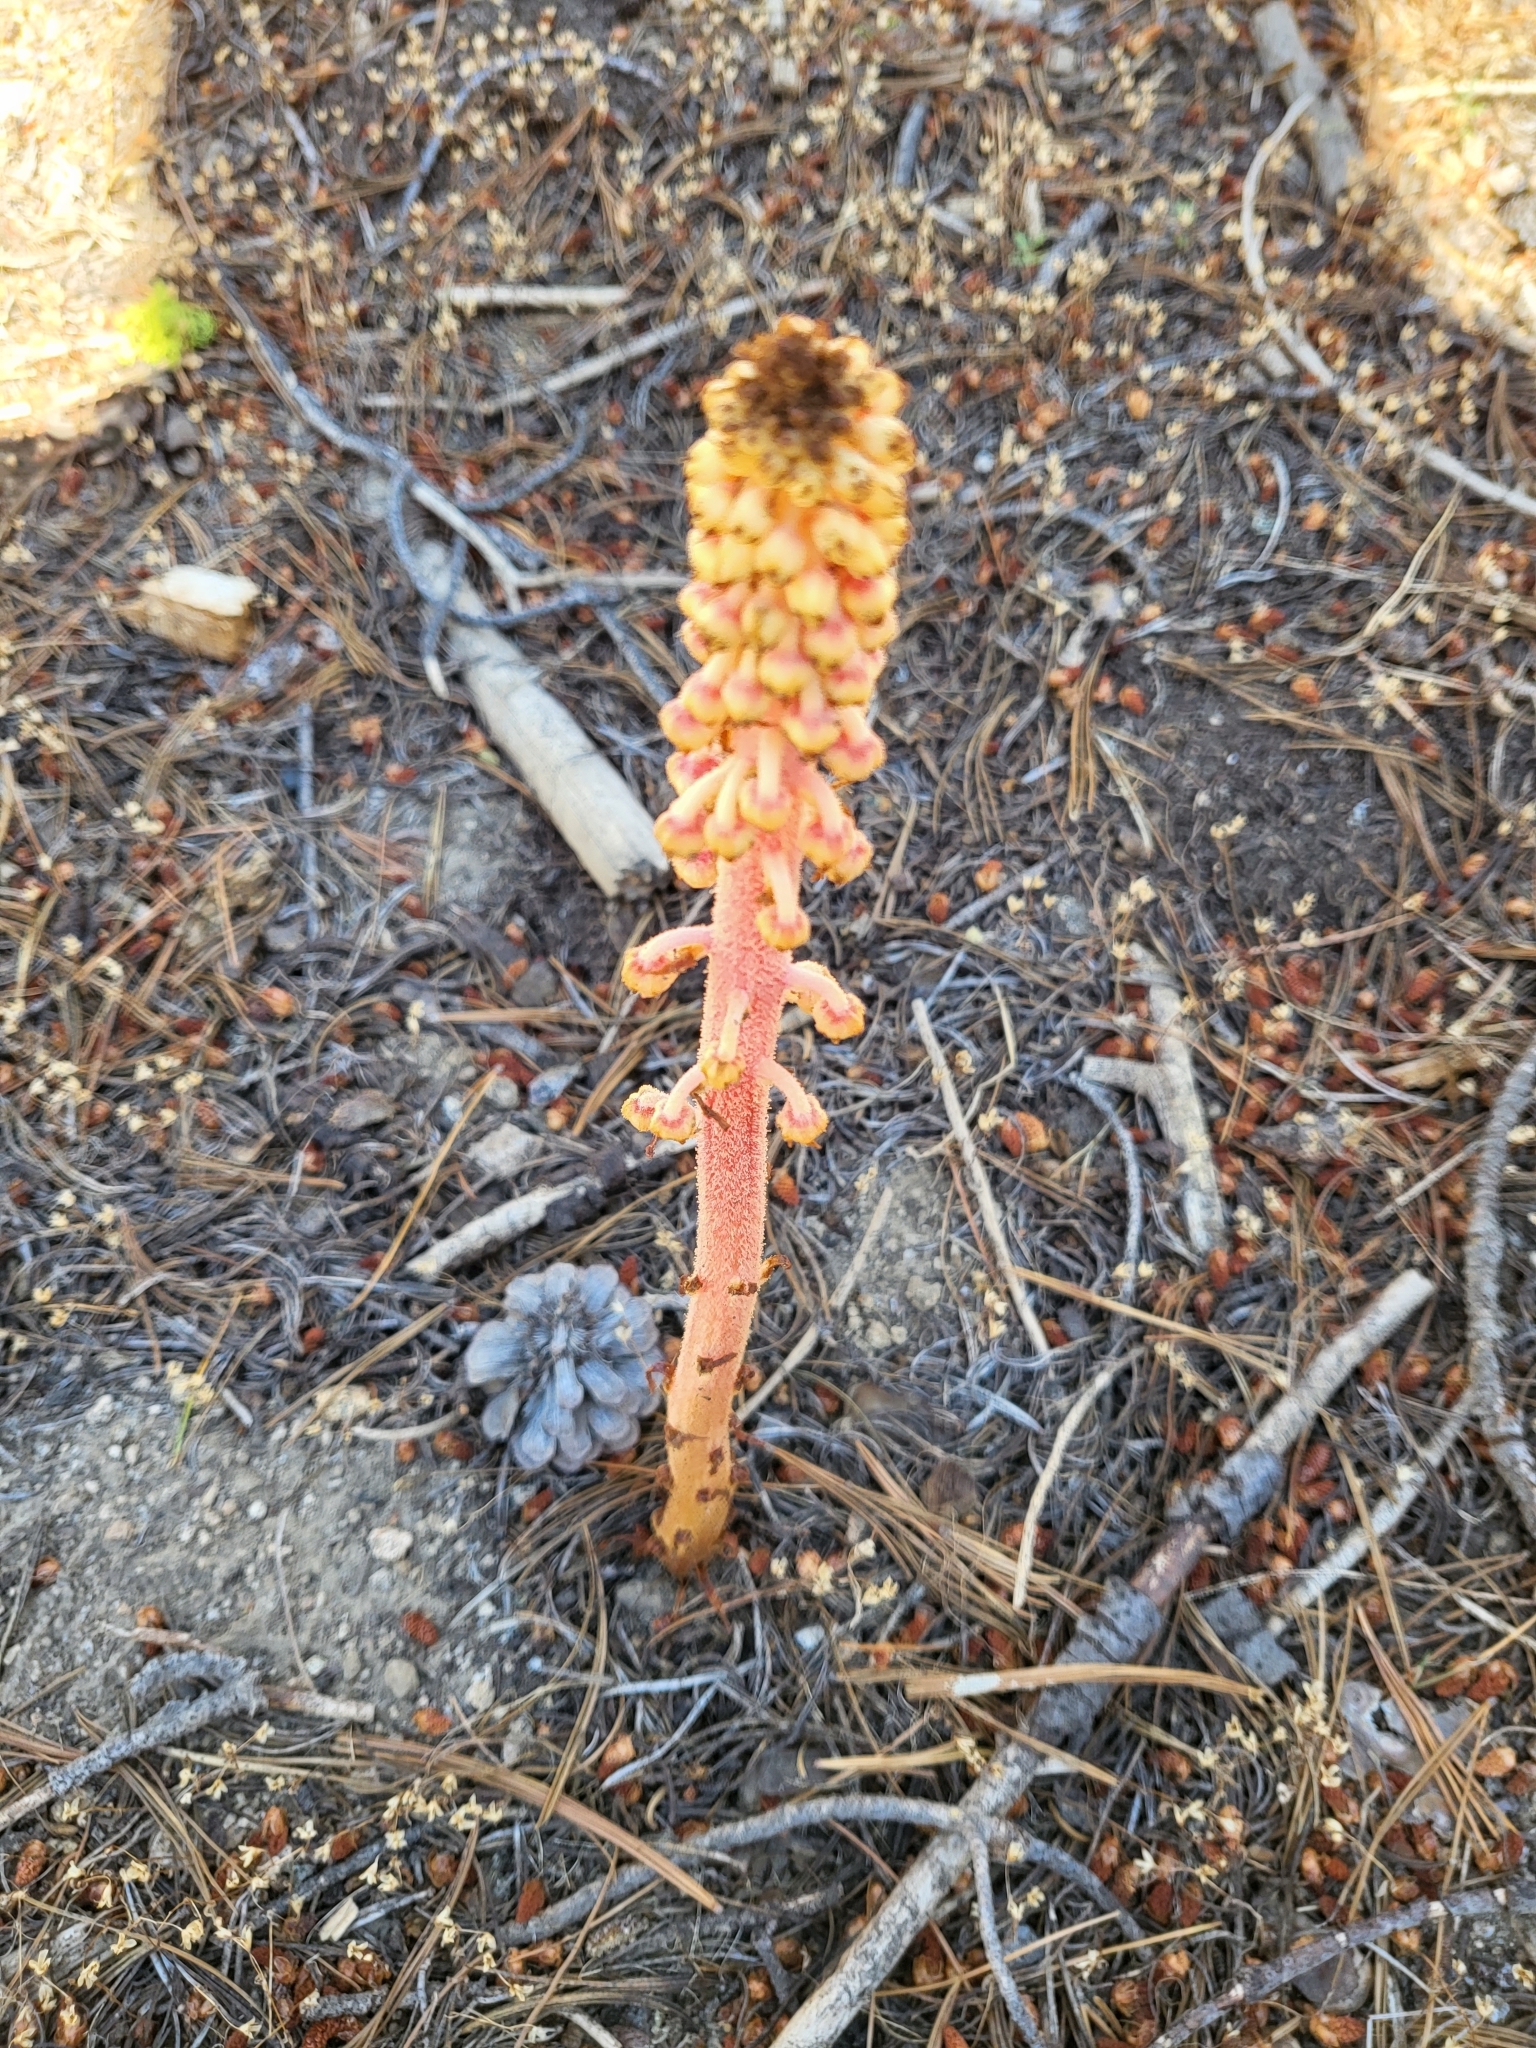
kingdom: Plantae
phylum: Tracheophyta
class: Magnoliopsida
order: Ericales
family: Ericaceae
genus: Pterospora
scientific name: Pterospora andromedea
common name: Giant bird's-nest
